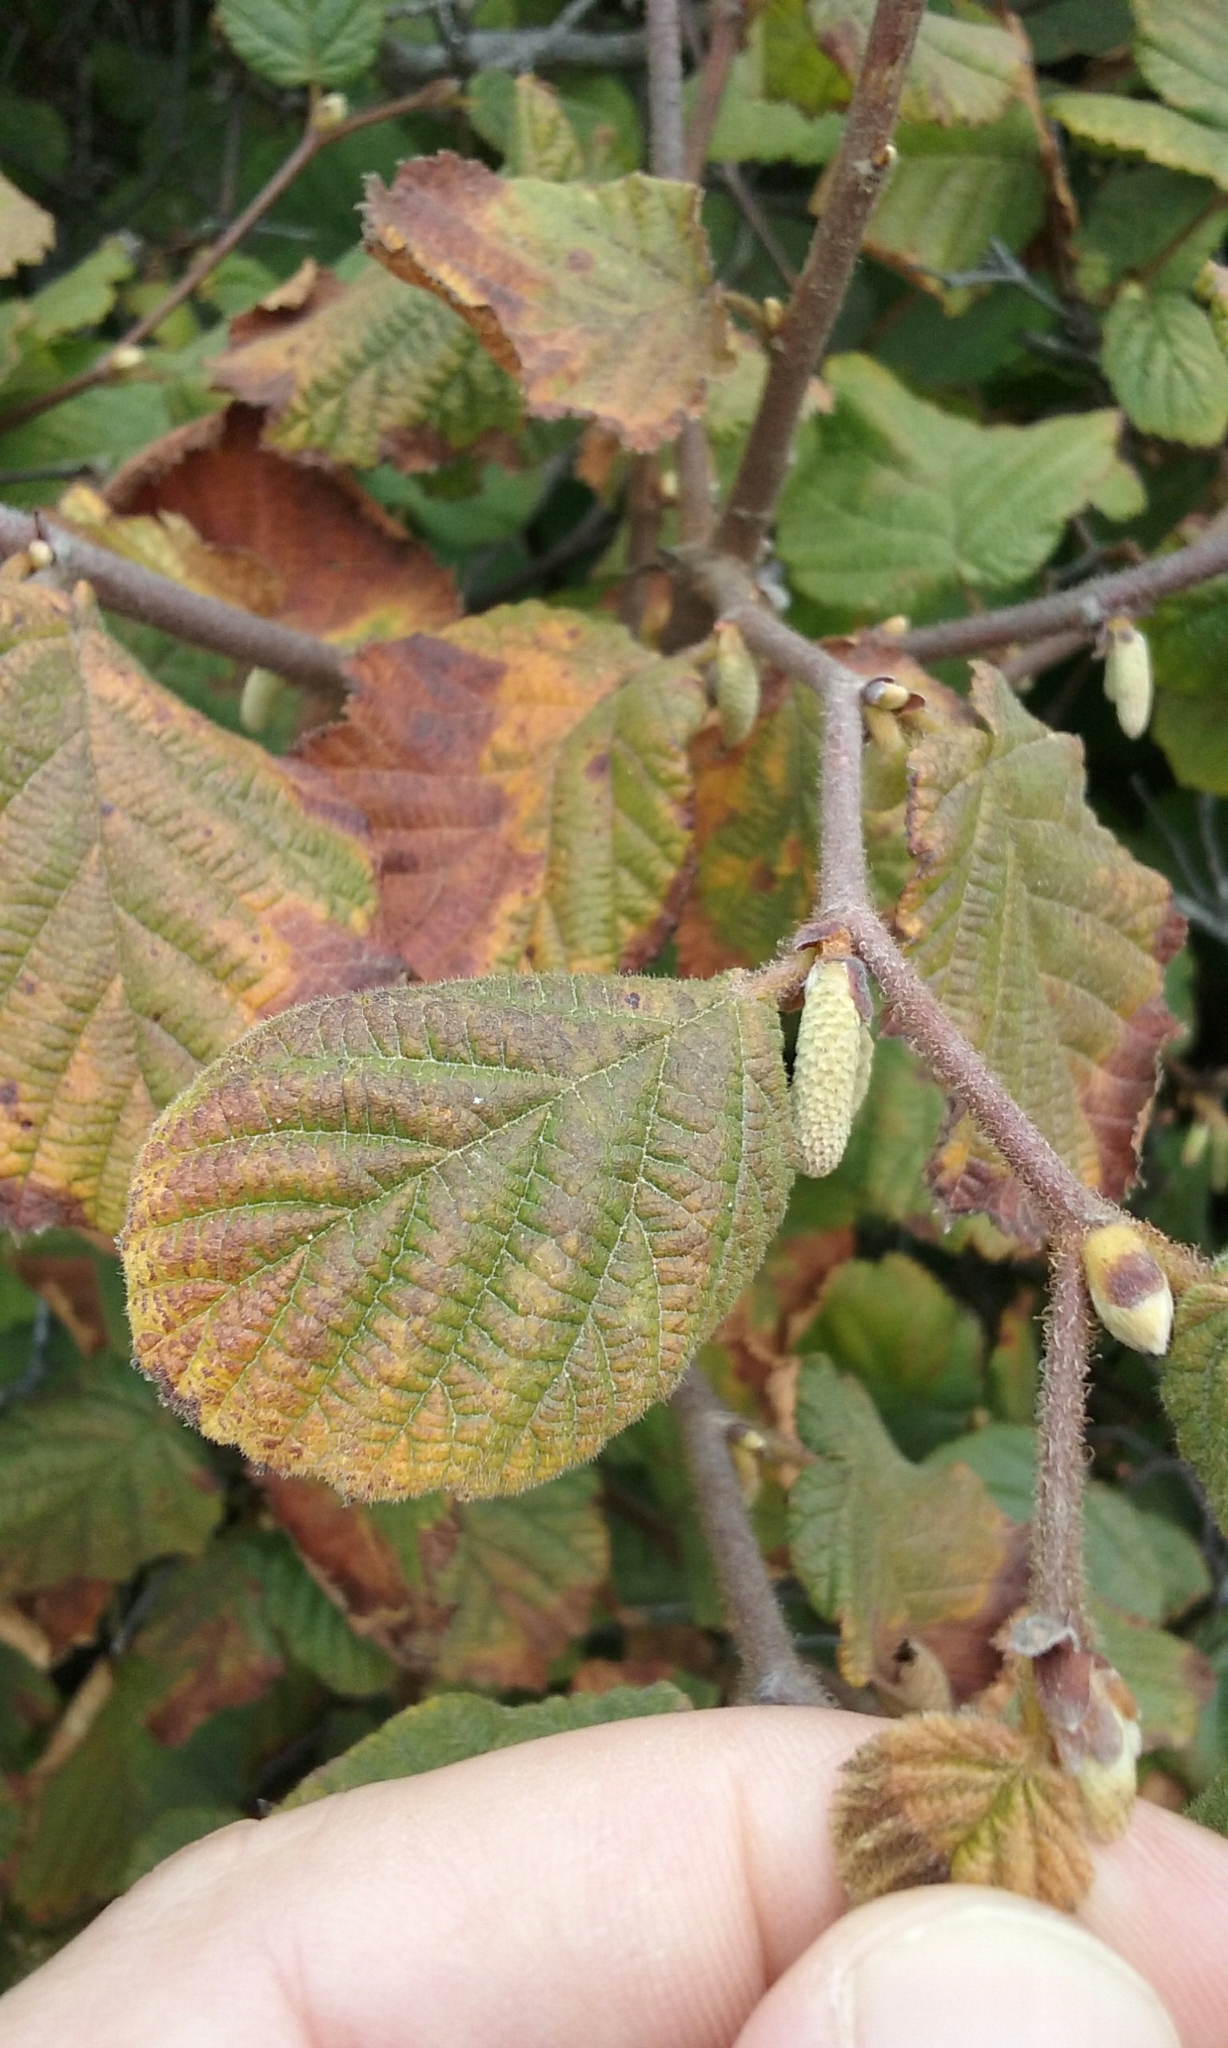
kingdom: Plantae
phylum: Tracheophyta
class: Magnoliopsida
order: Fagales
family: Betulaceae
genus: Corylus
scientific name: Corylus cornuta
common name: Beaked hazel
